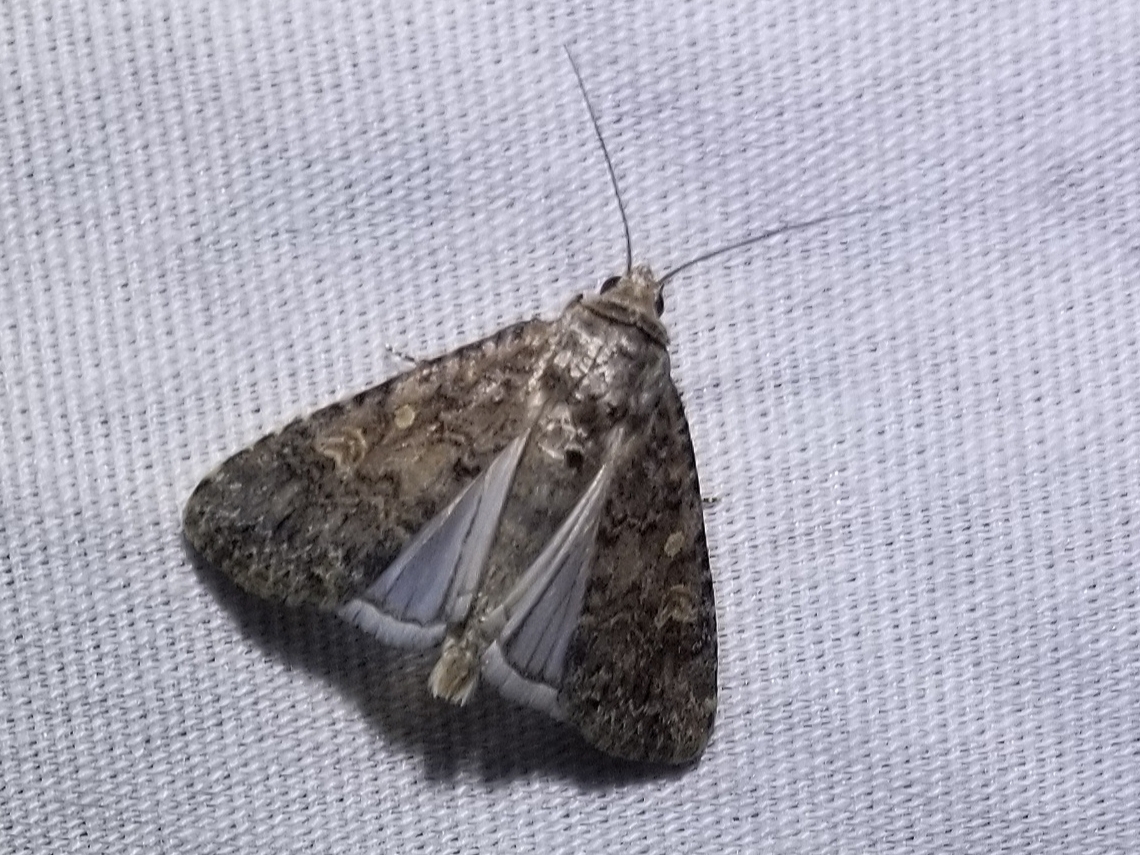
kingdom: Animalia
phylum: Arthropoda
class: Insecta
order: Lepidoptera
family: Noctuidae
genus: Spodoptera
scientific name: Spodoptera exigua
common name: Beet armyworm
